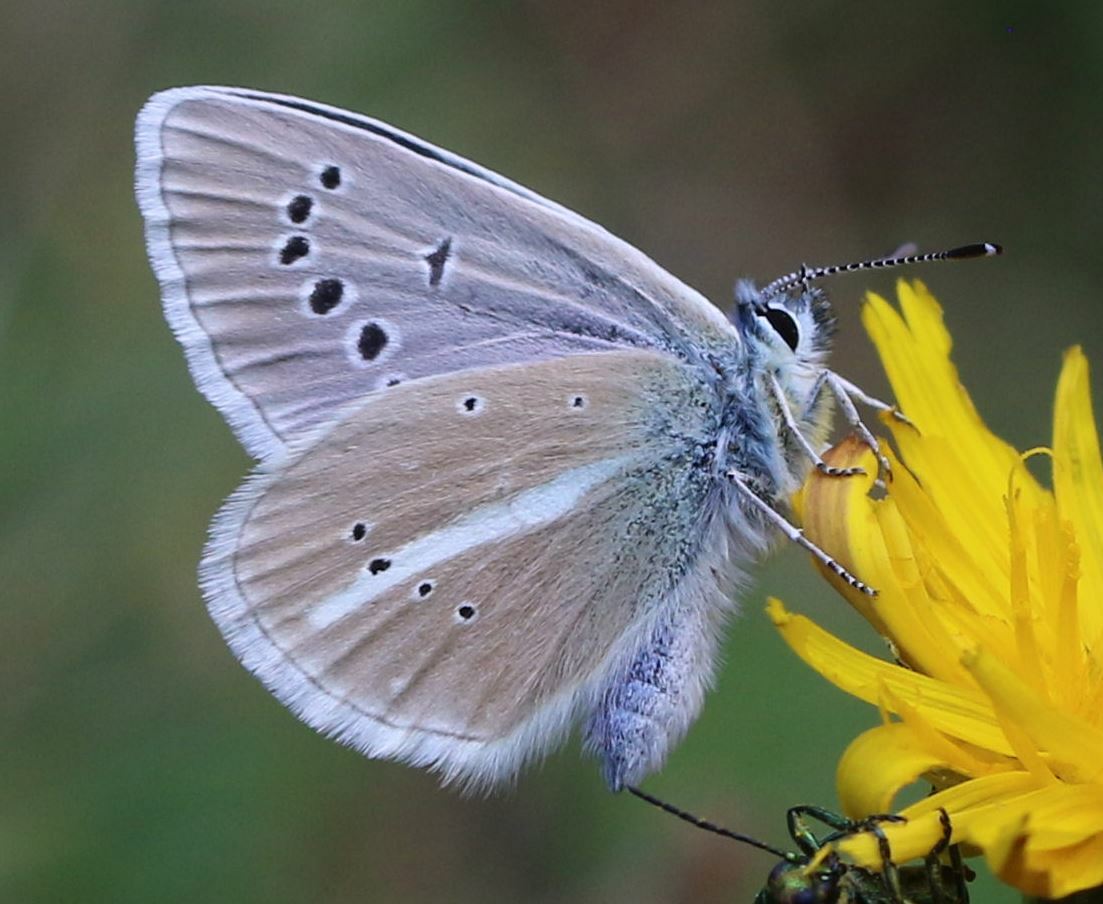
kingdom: Animalia
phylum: Arthropoda
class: Insecta
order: Lepidoptera
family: Lycaenidae
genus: Agrodiaetus
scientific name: Agrodiaetus damon
